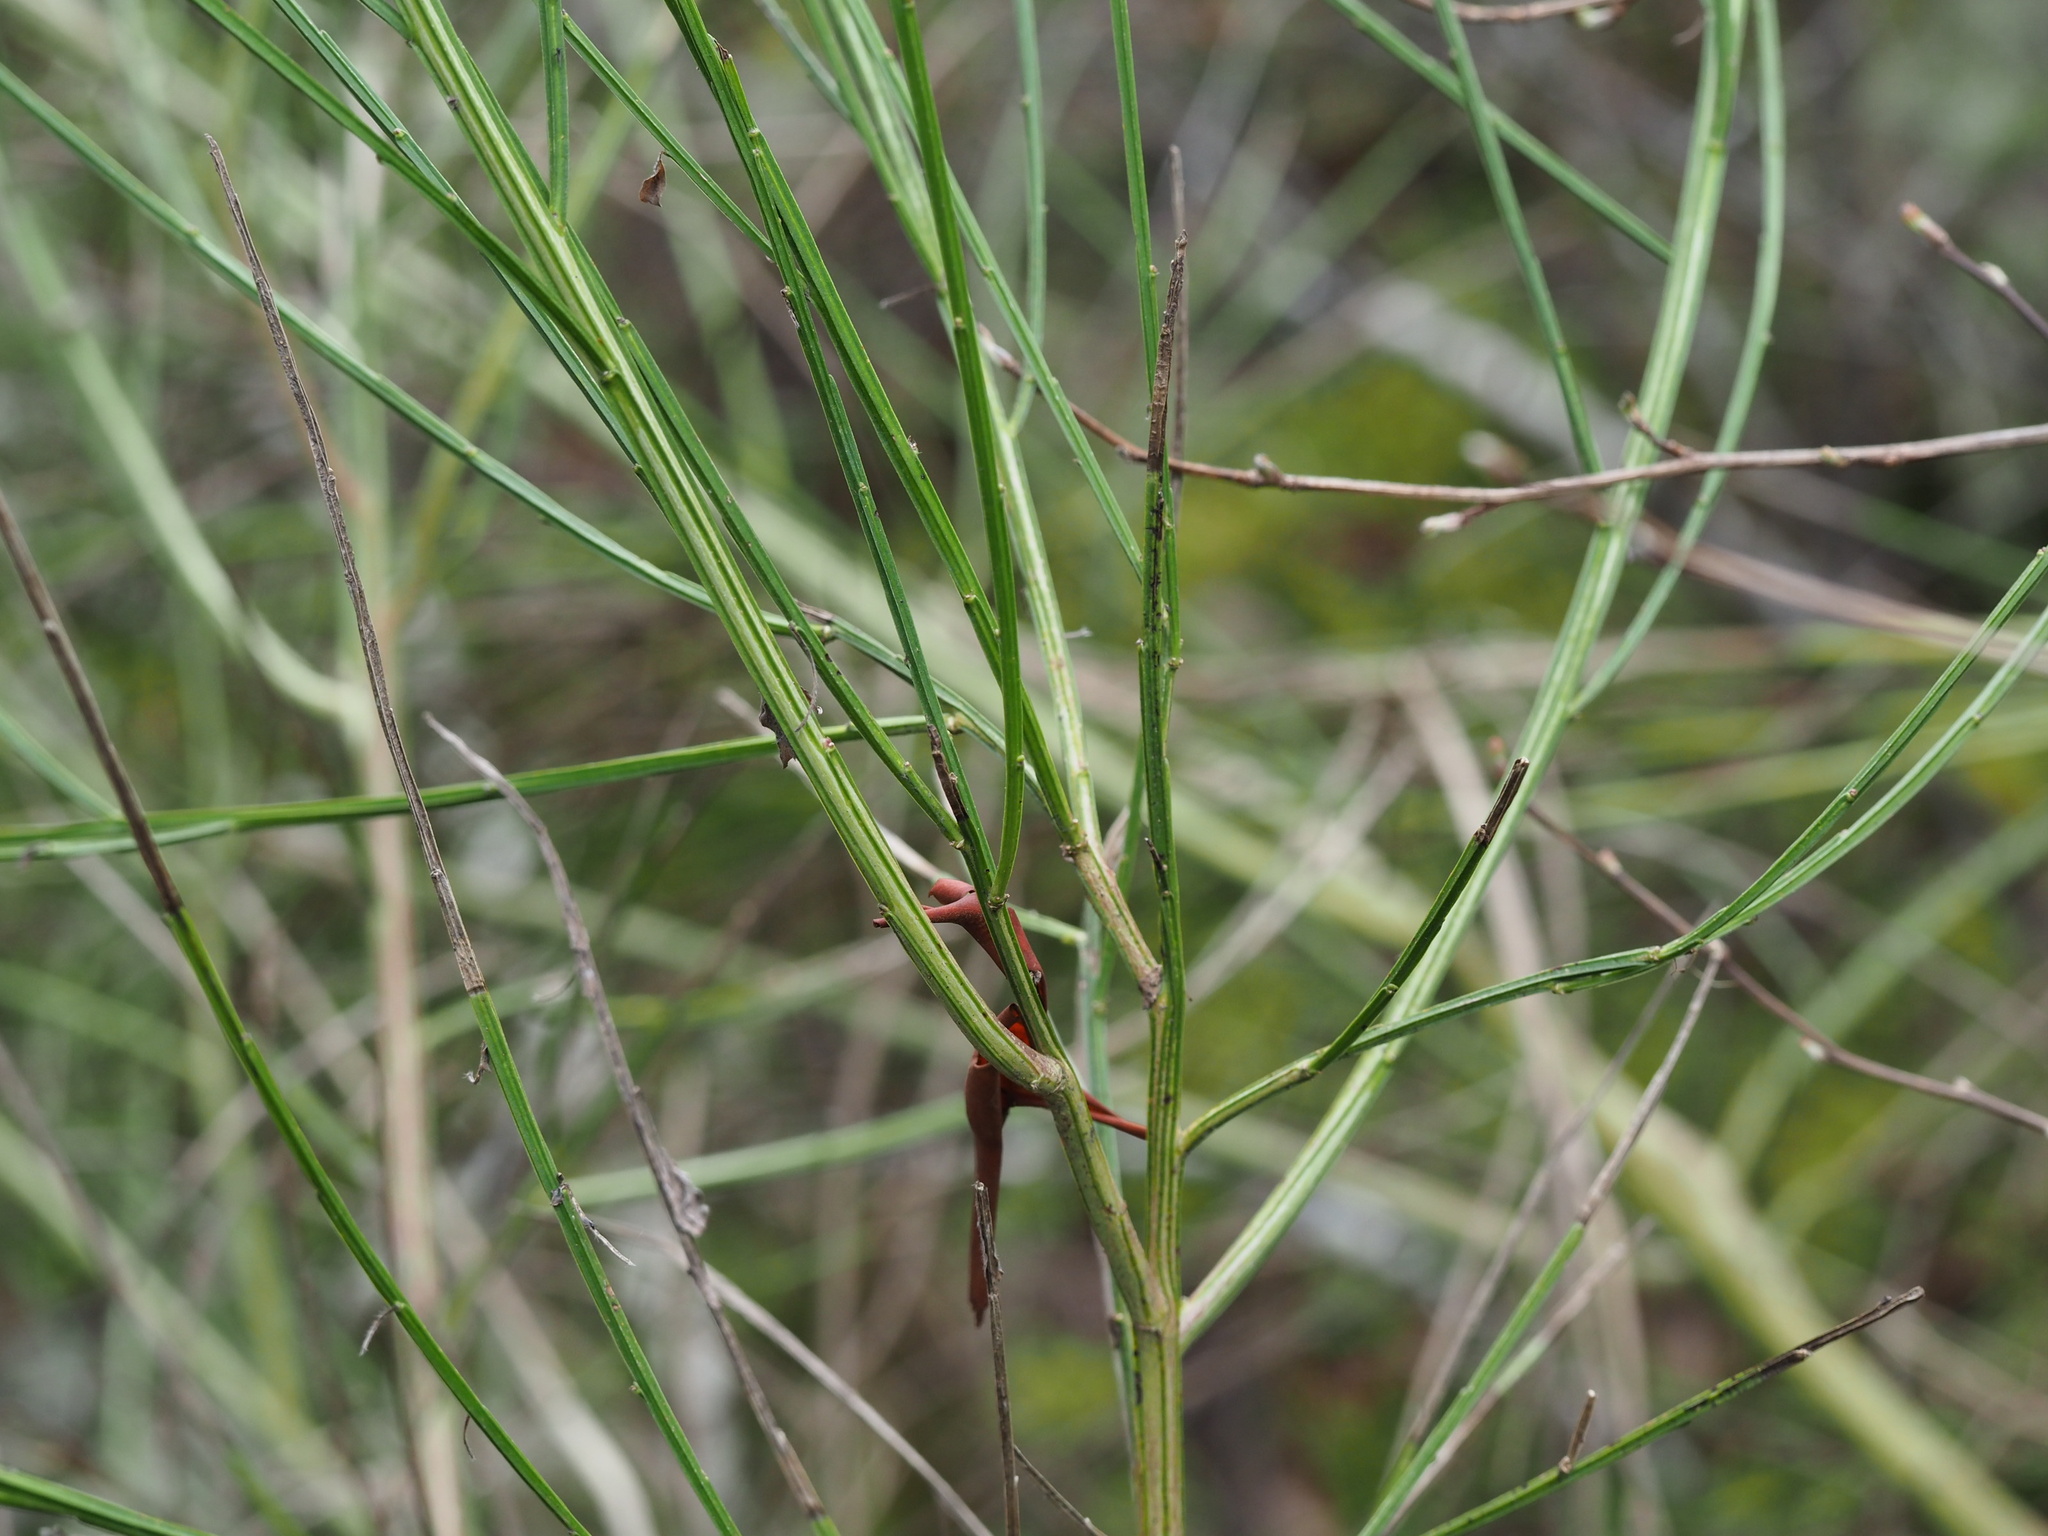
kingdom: Plantae
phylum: Tracheophyta
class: Magnoliopsida
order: Fabales
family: Fabaceae
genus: Cytisus
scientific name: Cytisus scoparius
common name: Scotch broom
